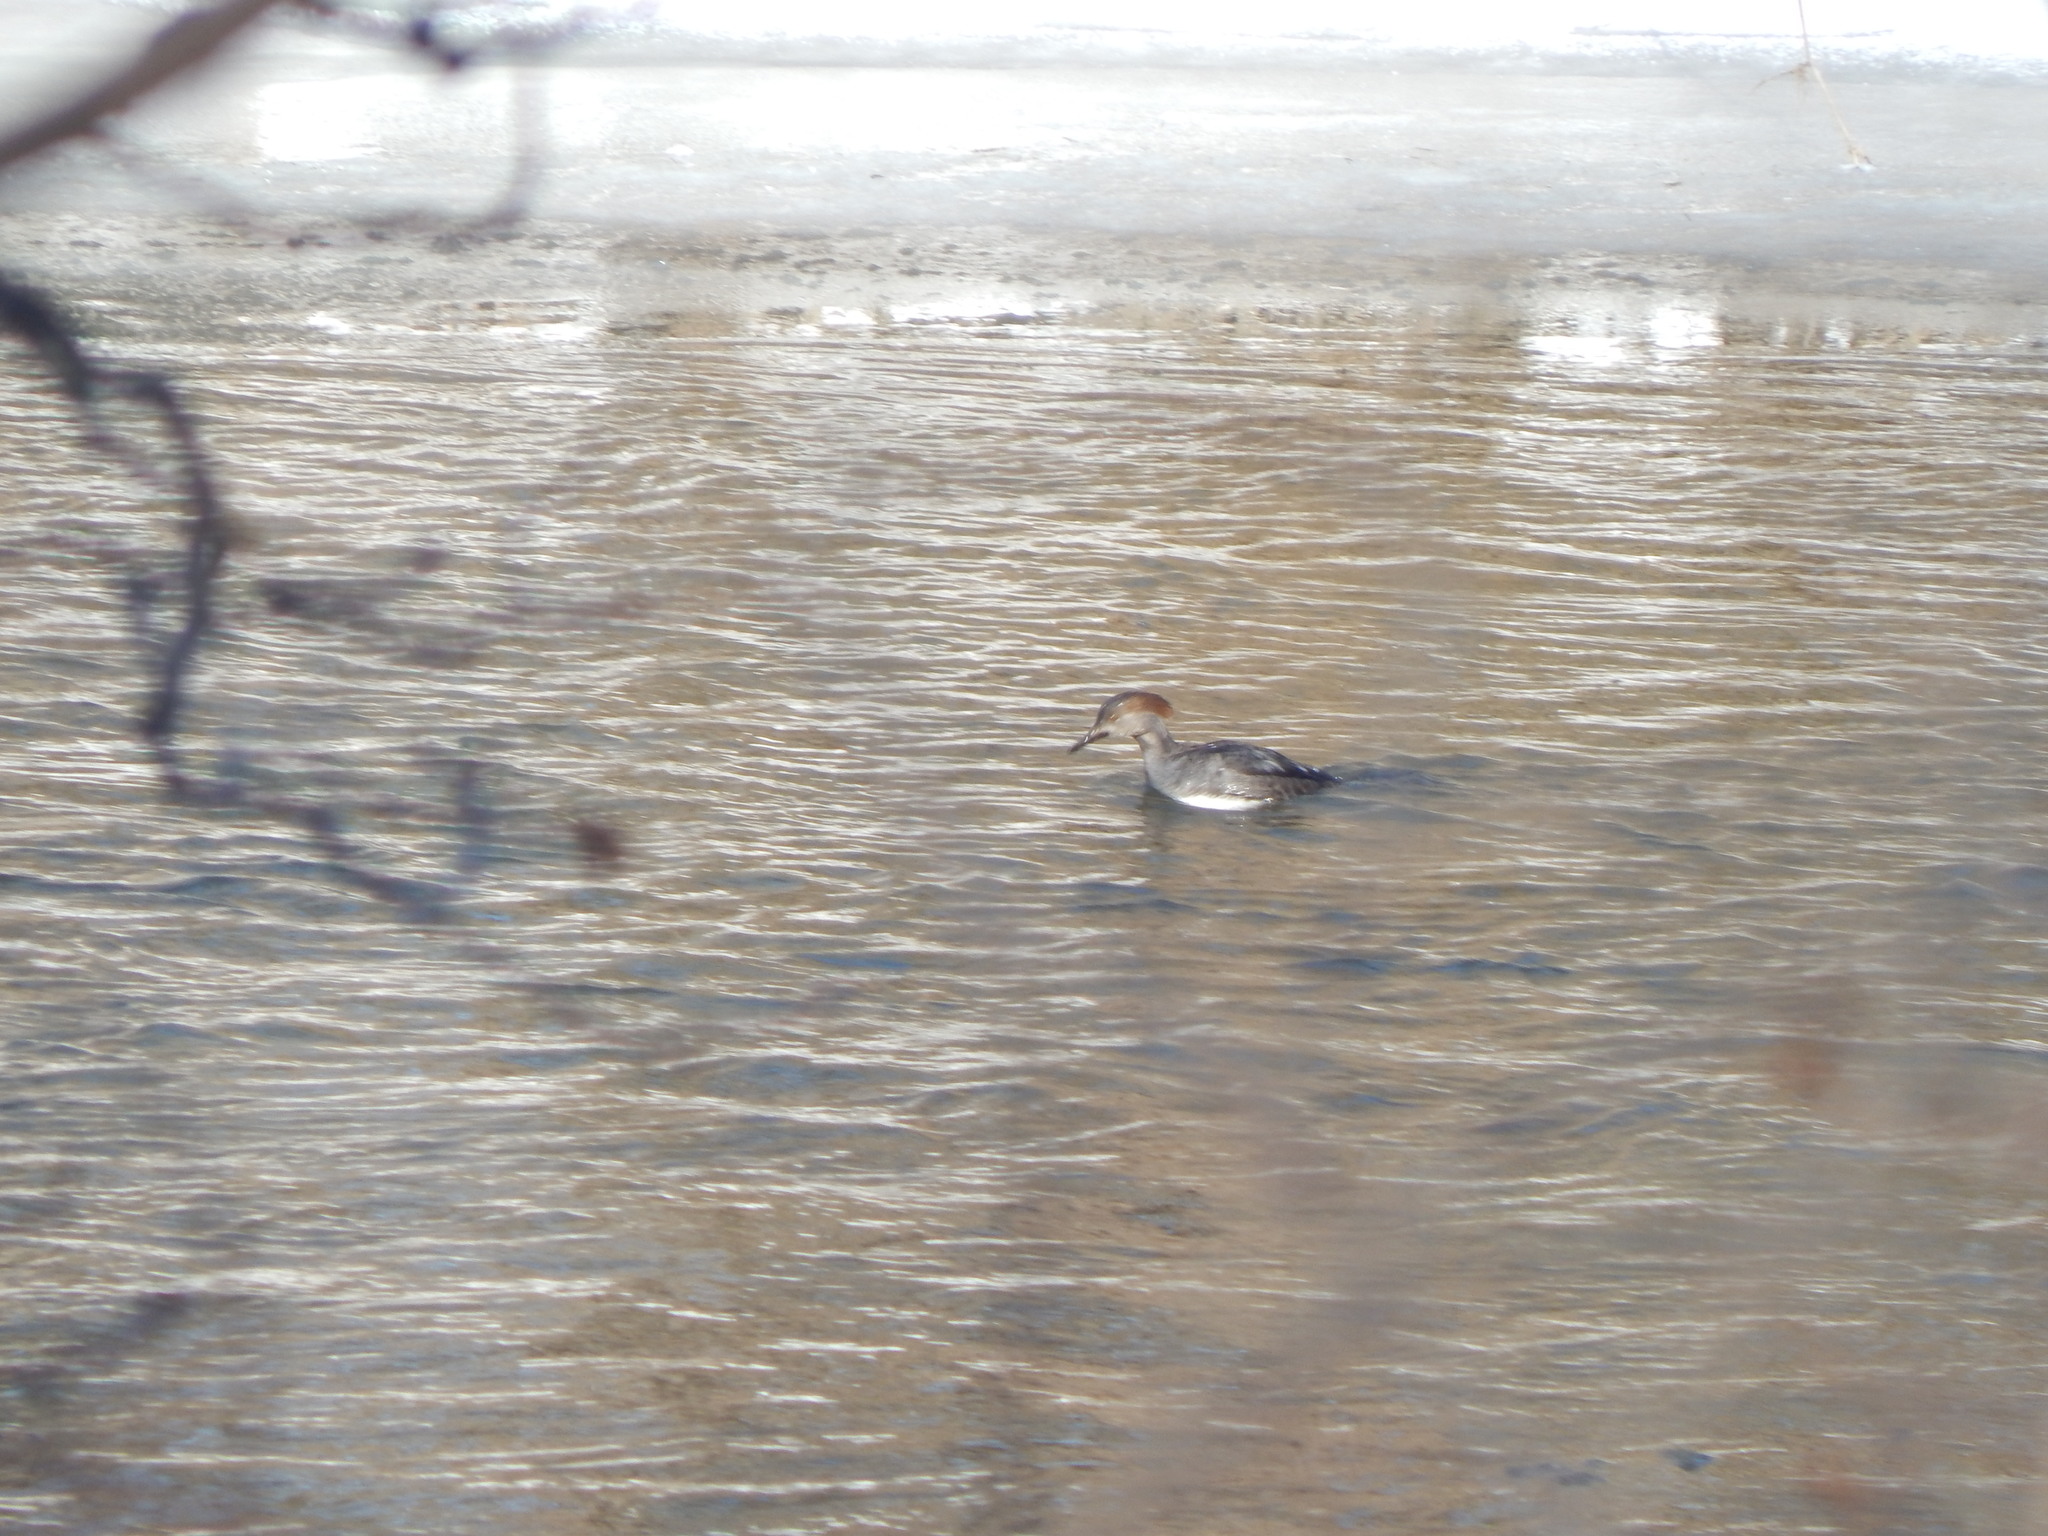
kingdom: Animalia
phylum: Chordata
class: Aves
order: Anseriformes
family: Anatidae
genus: Lophodytes
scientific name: Lophodytes cucullatus
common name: Hooded merganser
